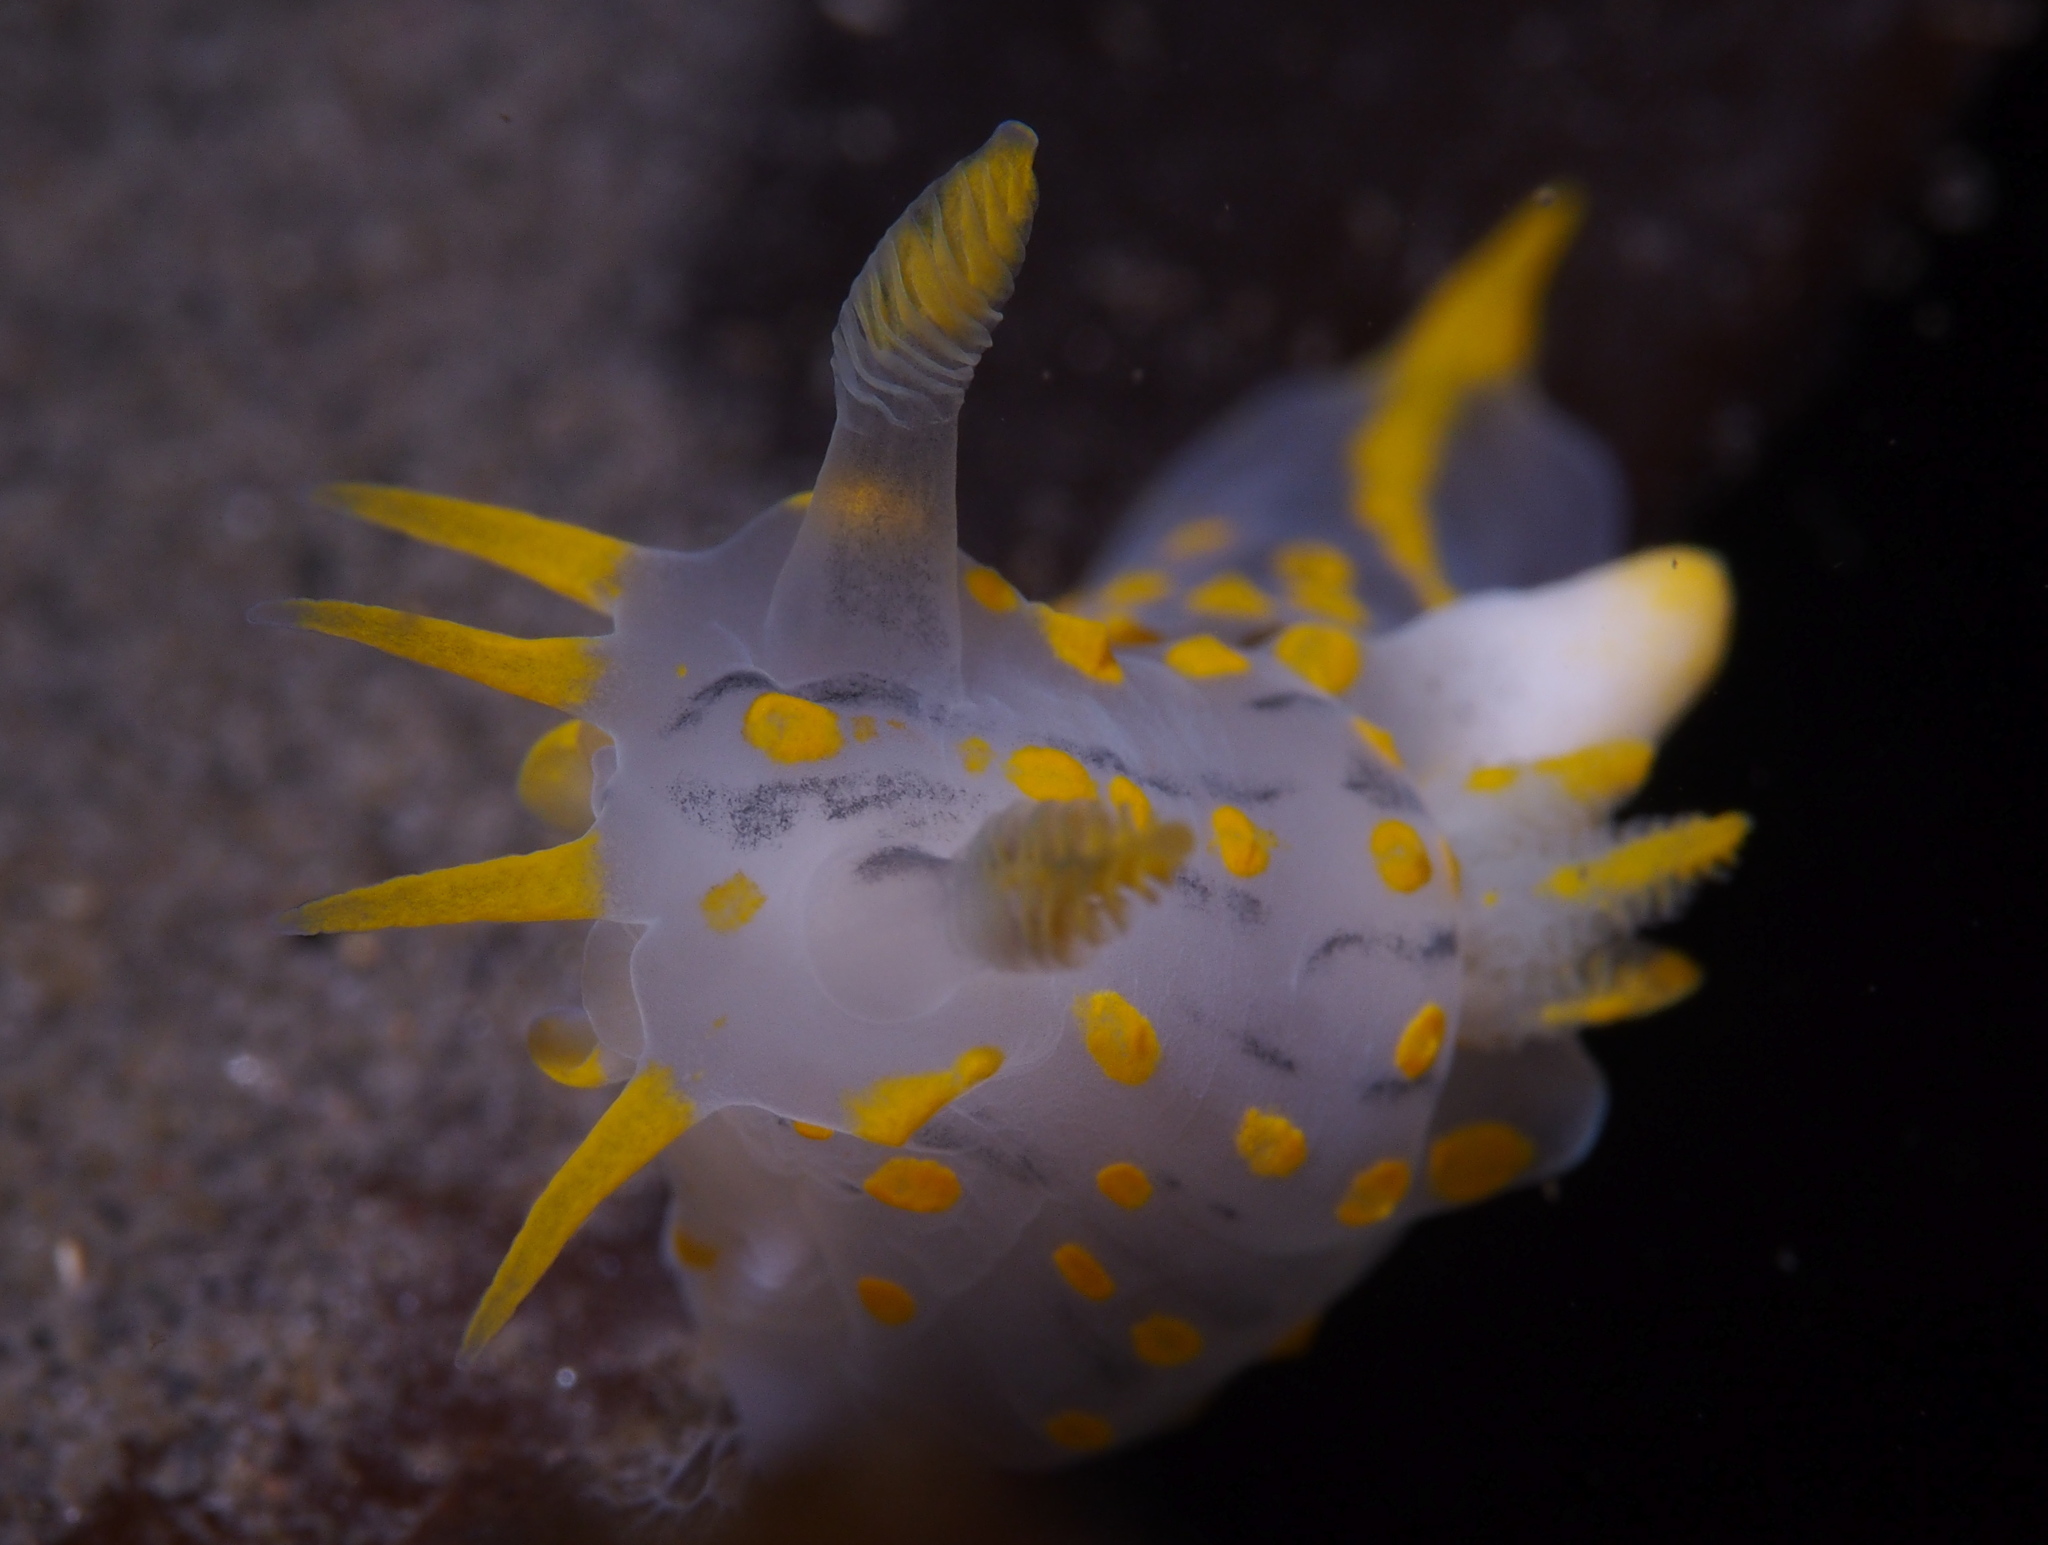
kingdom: Animalia
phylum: Mollusca
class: Gastropoda
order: Nudibranchia
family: Polyceridae
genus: Polycera
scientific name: Polycera quadrilineata
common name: Four-striped polycera
